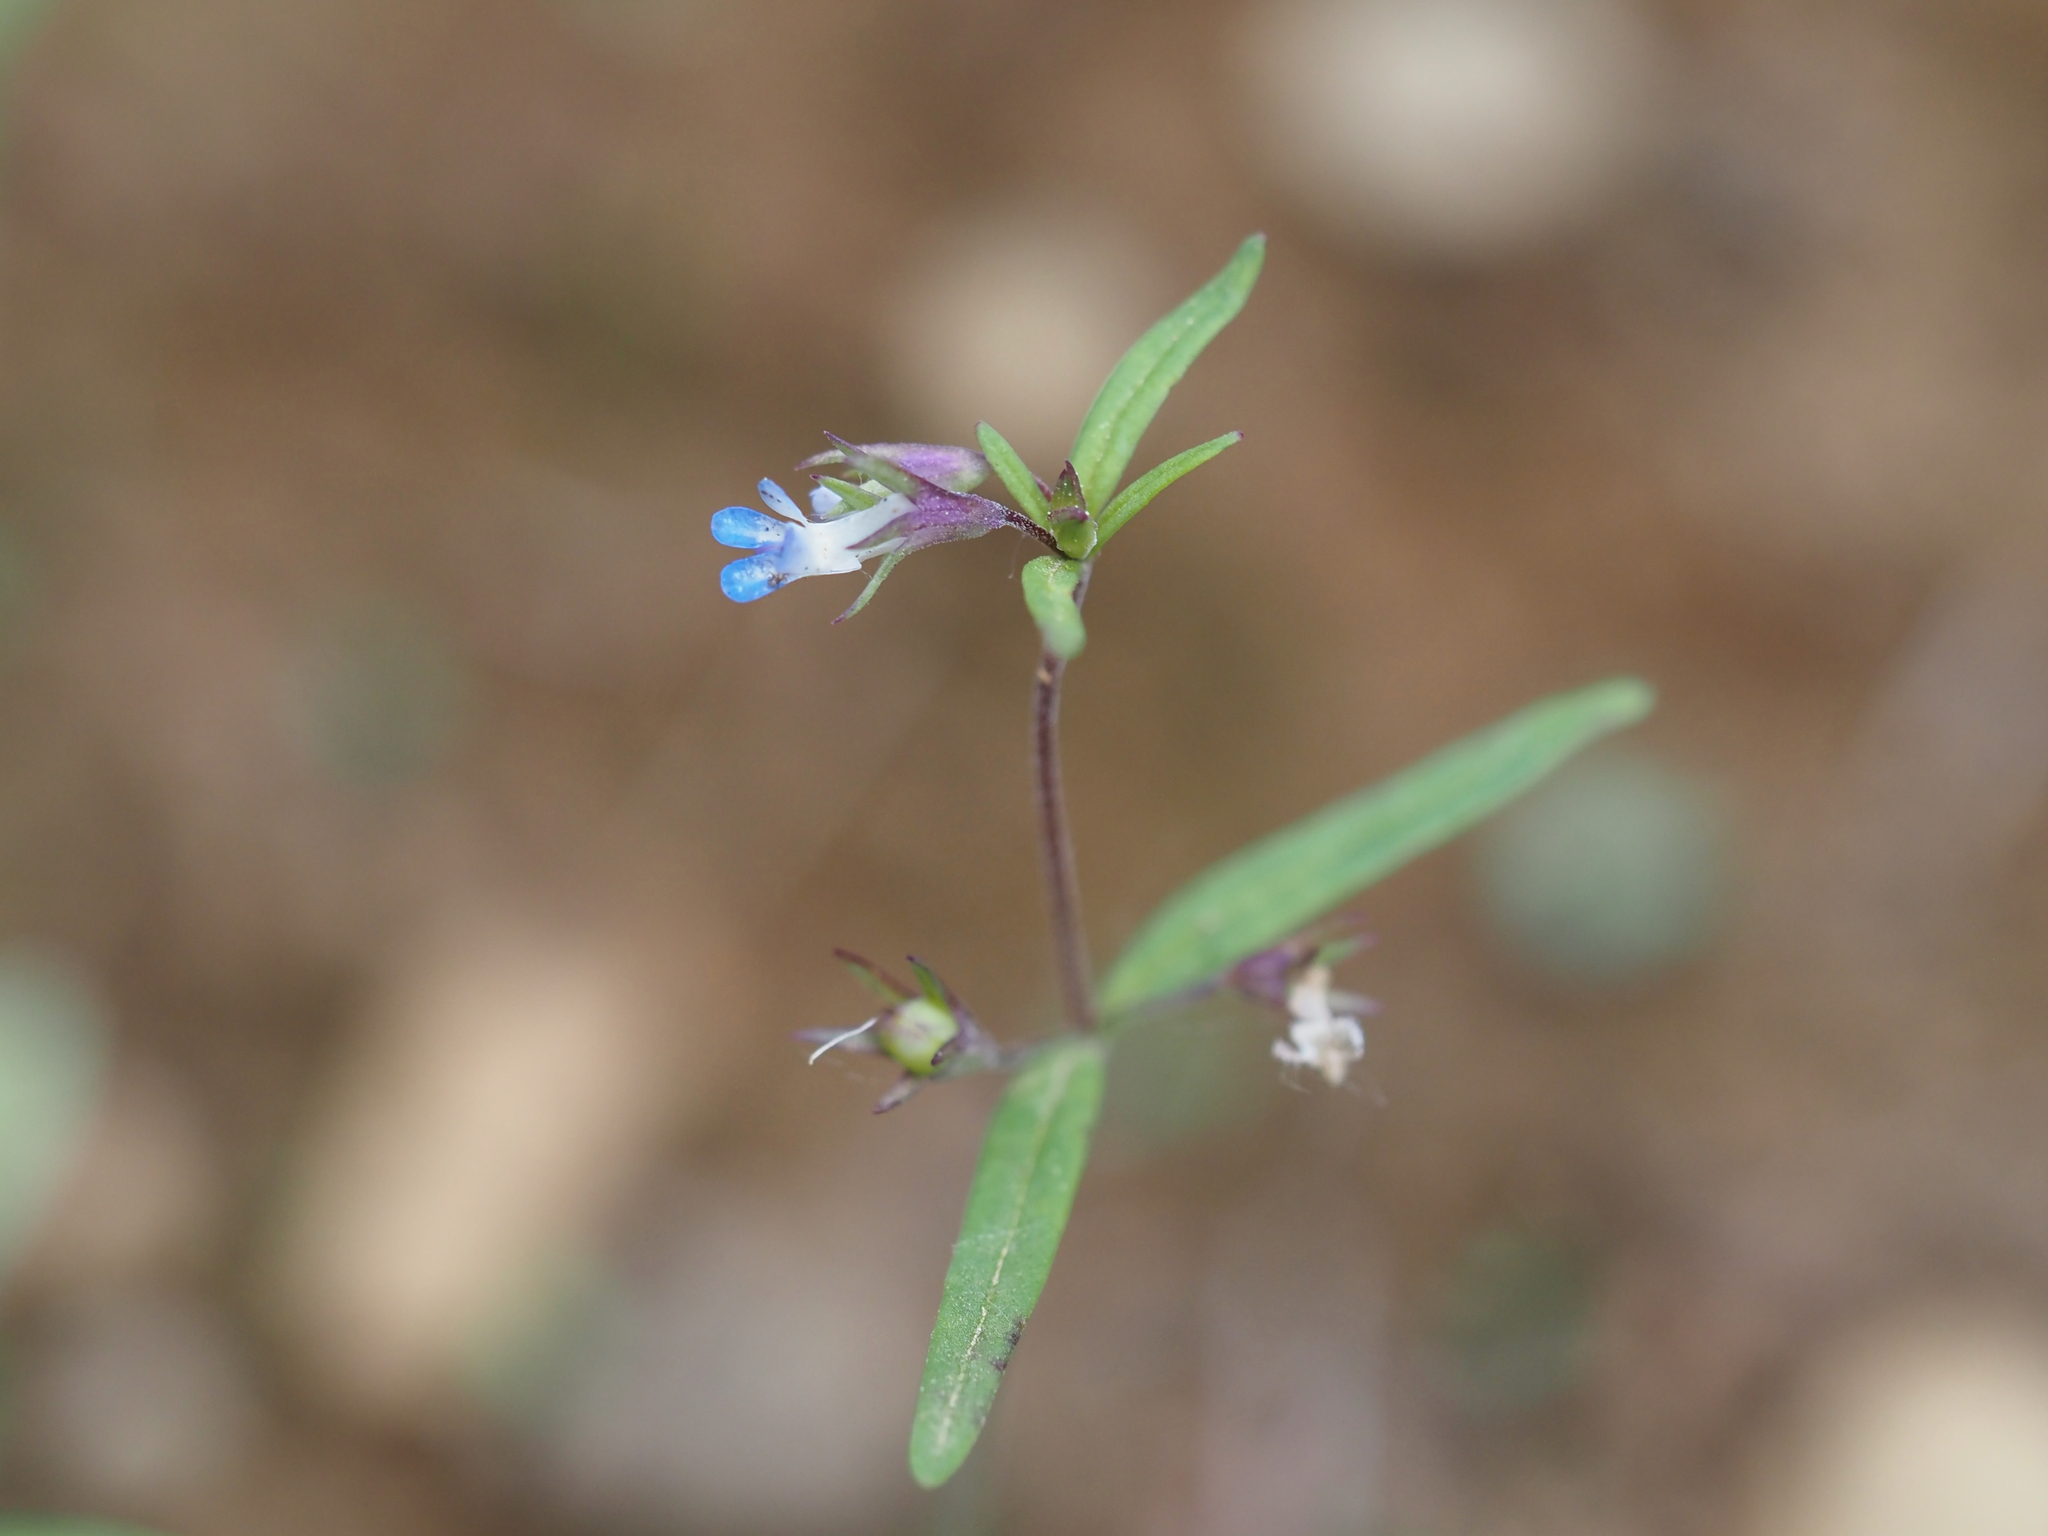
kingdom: Plantae
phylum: Tracheophyta
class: Magnoliopsida
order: Lamiales
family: Plantaginaceae
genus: Collinsia
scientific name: Collinsia parviflora
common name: Blue-lips
